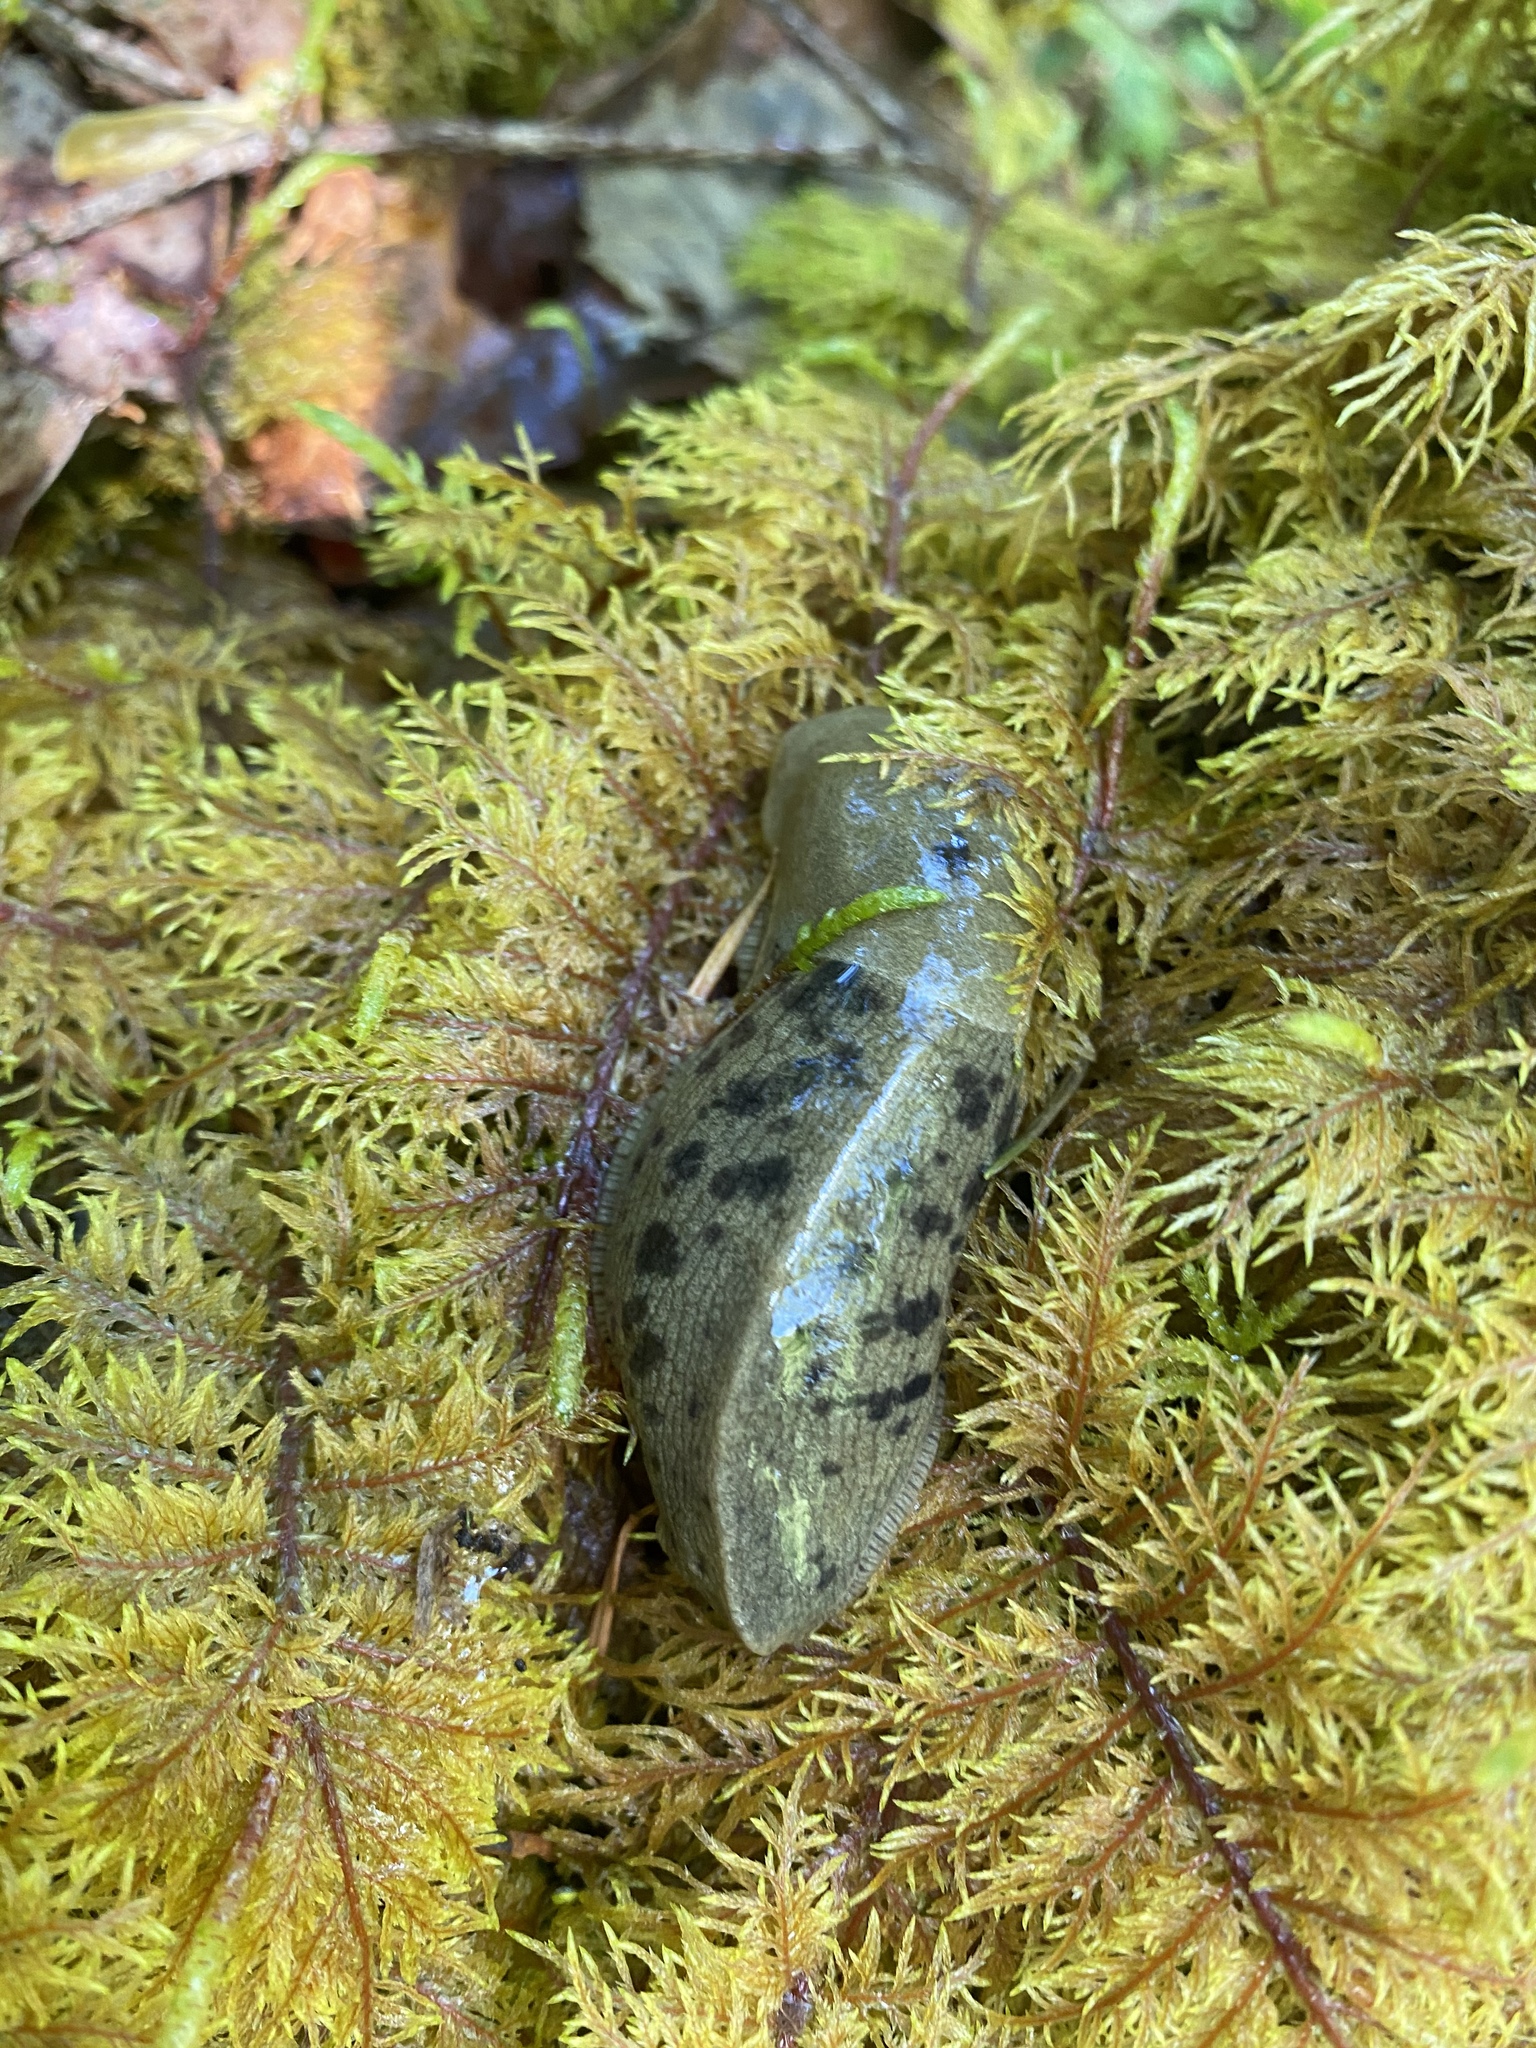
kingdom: Animalia
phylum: Mollusca
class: Gastropoda
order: Stylommatophora
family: Ariolimacidae
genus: Ariolimax
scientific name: Ariolimax columbianus
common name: Pacific banana slug
